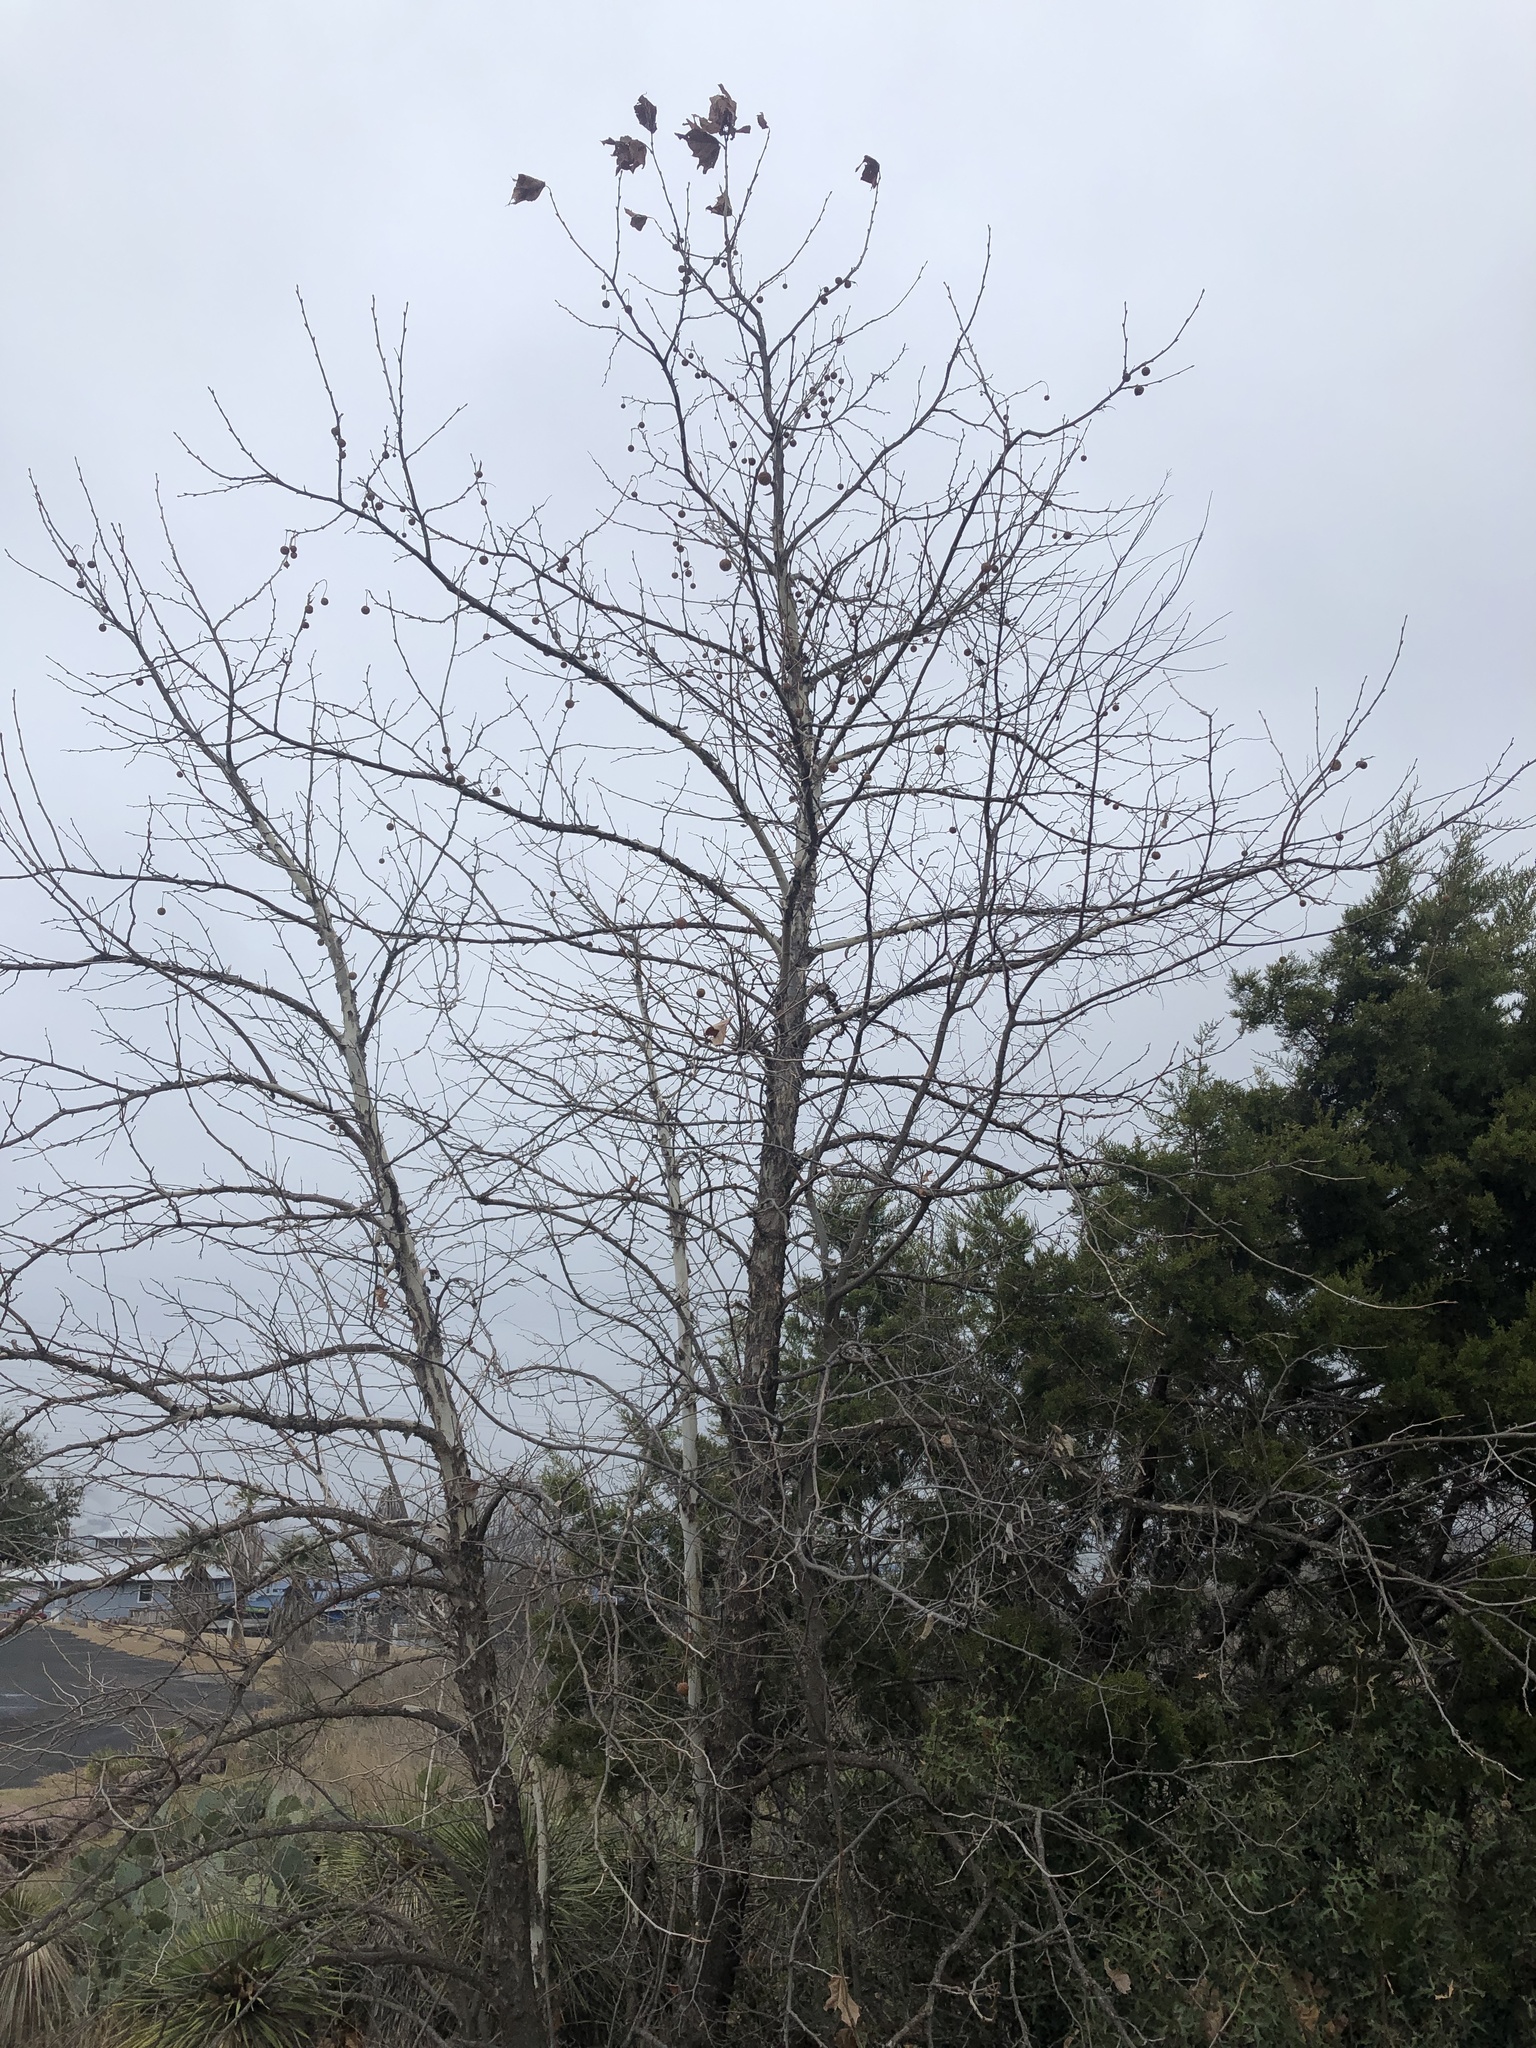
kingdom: Plantae
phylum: Tracheophyta
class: Magnoliopsida
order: Proteales
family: Platanaceae
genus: Platanus
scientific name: Platanus occidentalis
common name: American sycamore
